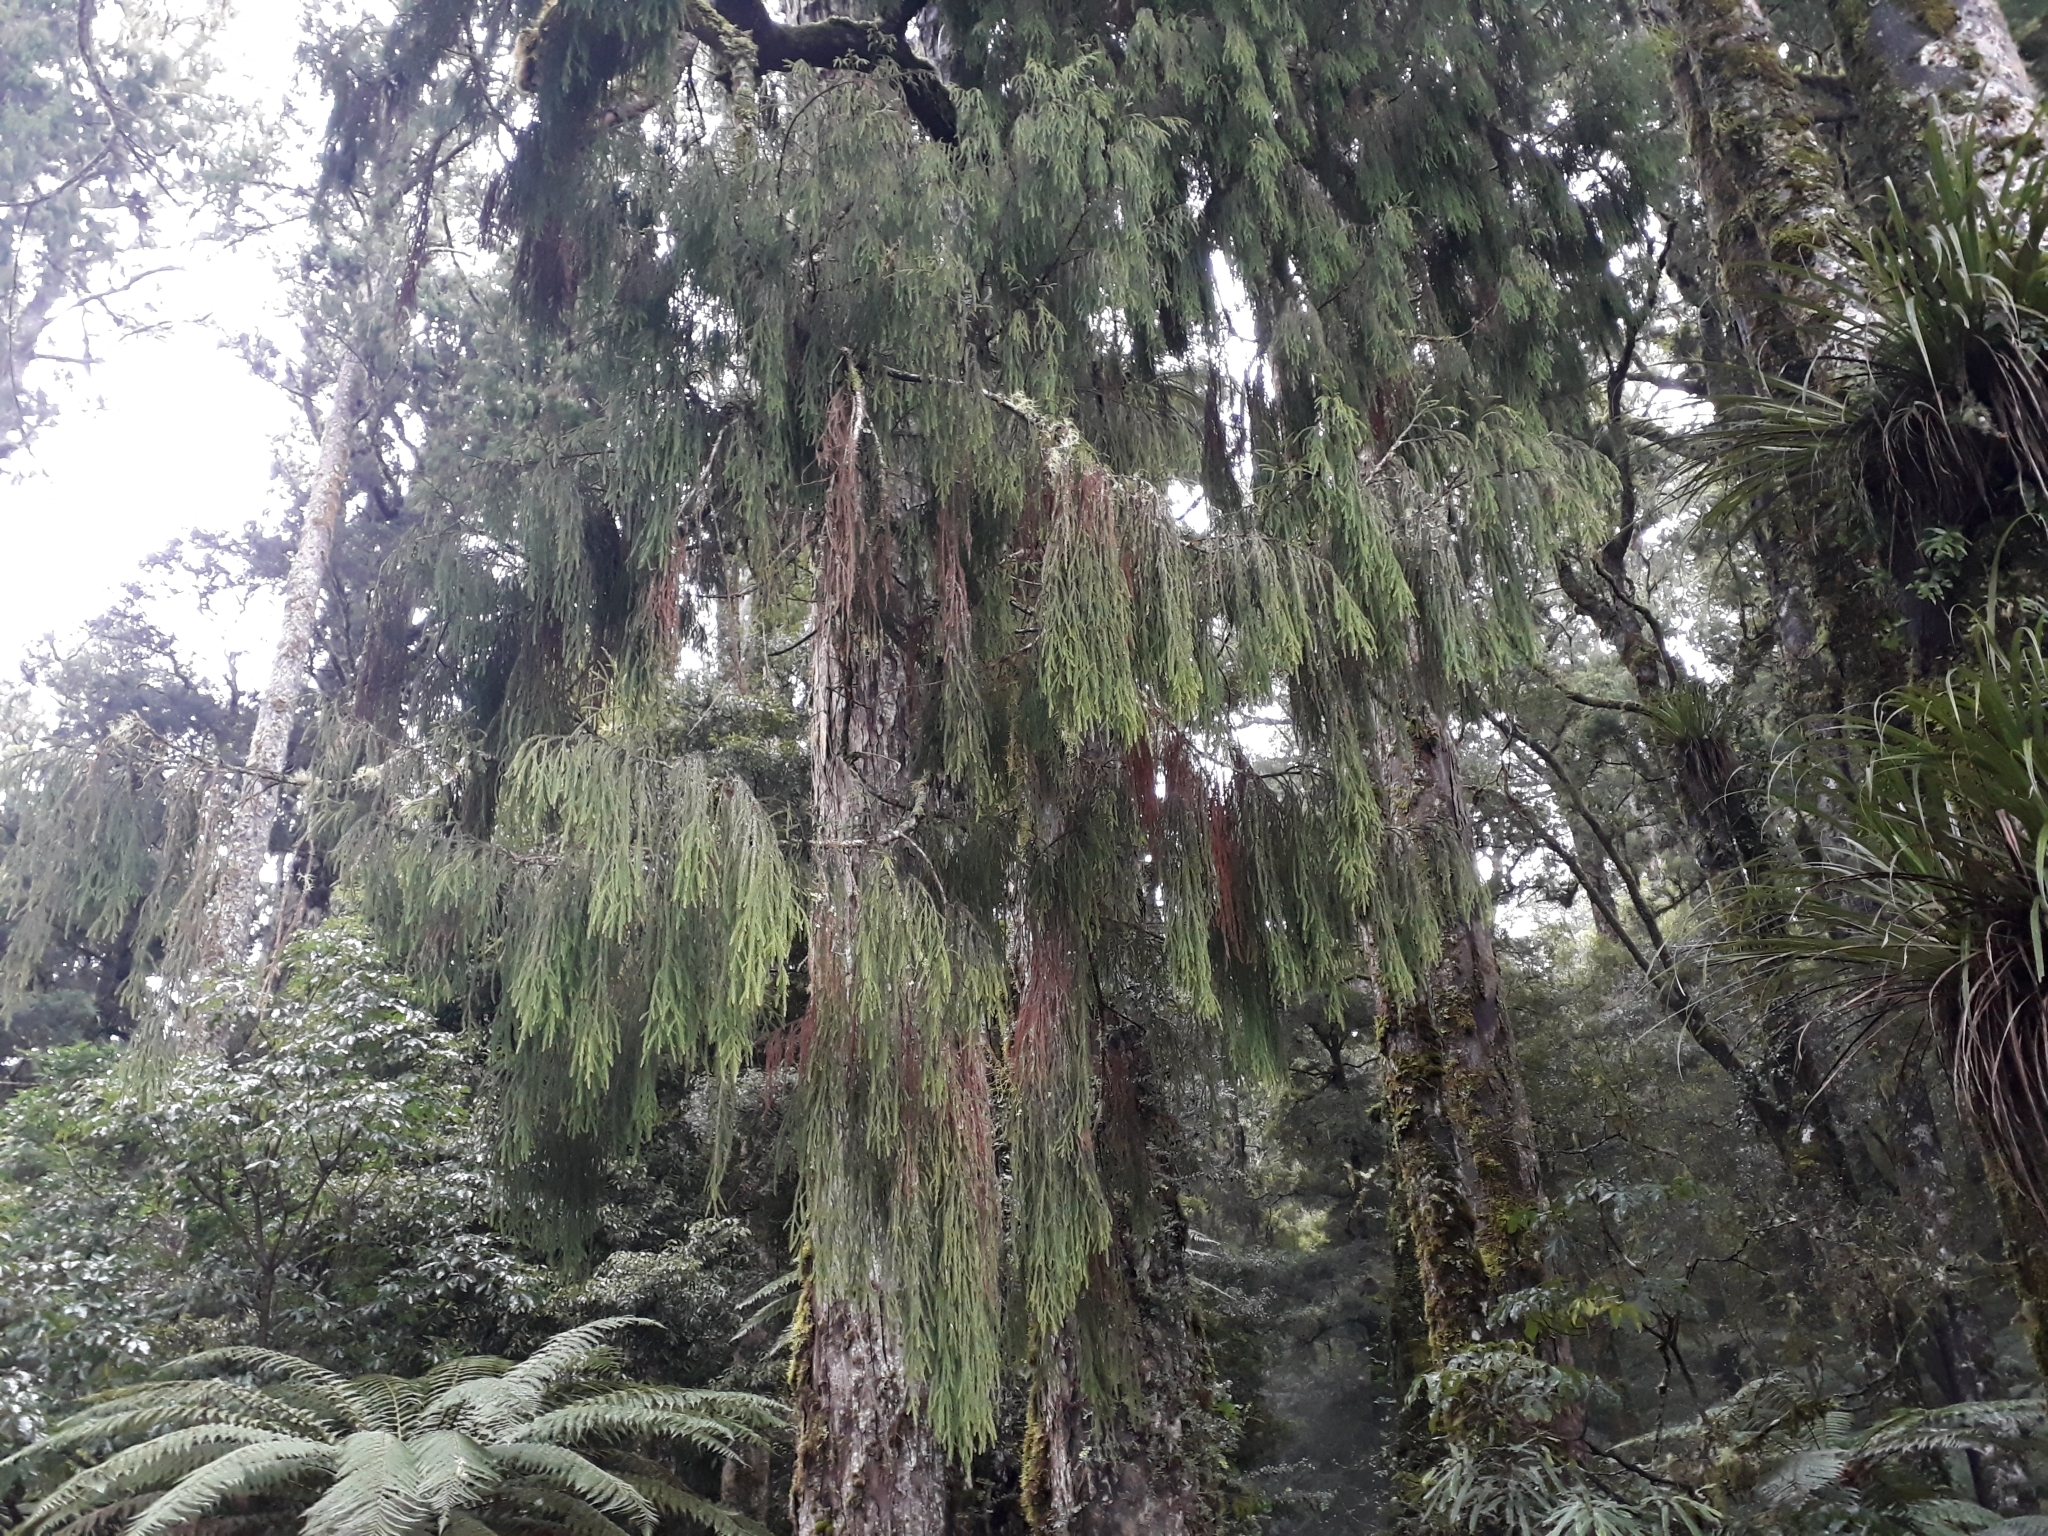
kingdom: Plantae
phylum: Tracheophyta
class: Pinopsida
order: Pinales
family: Podocarpaceae
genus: Dacrydium
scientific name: Dacrydium cupressinum
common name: Red pine
